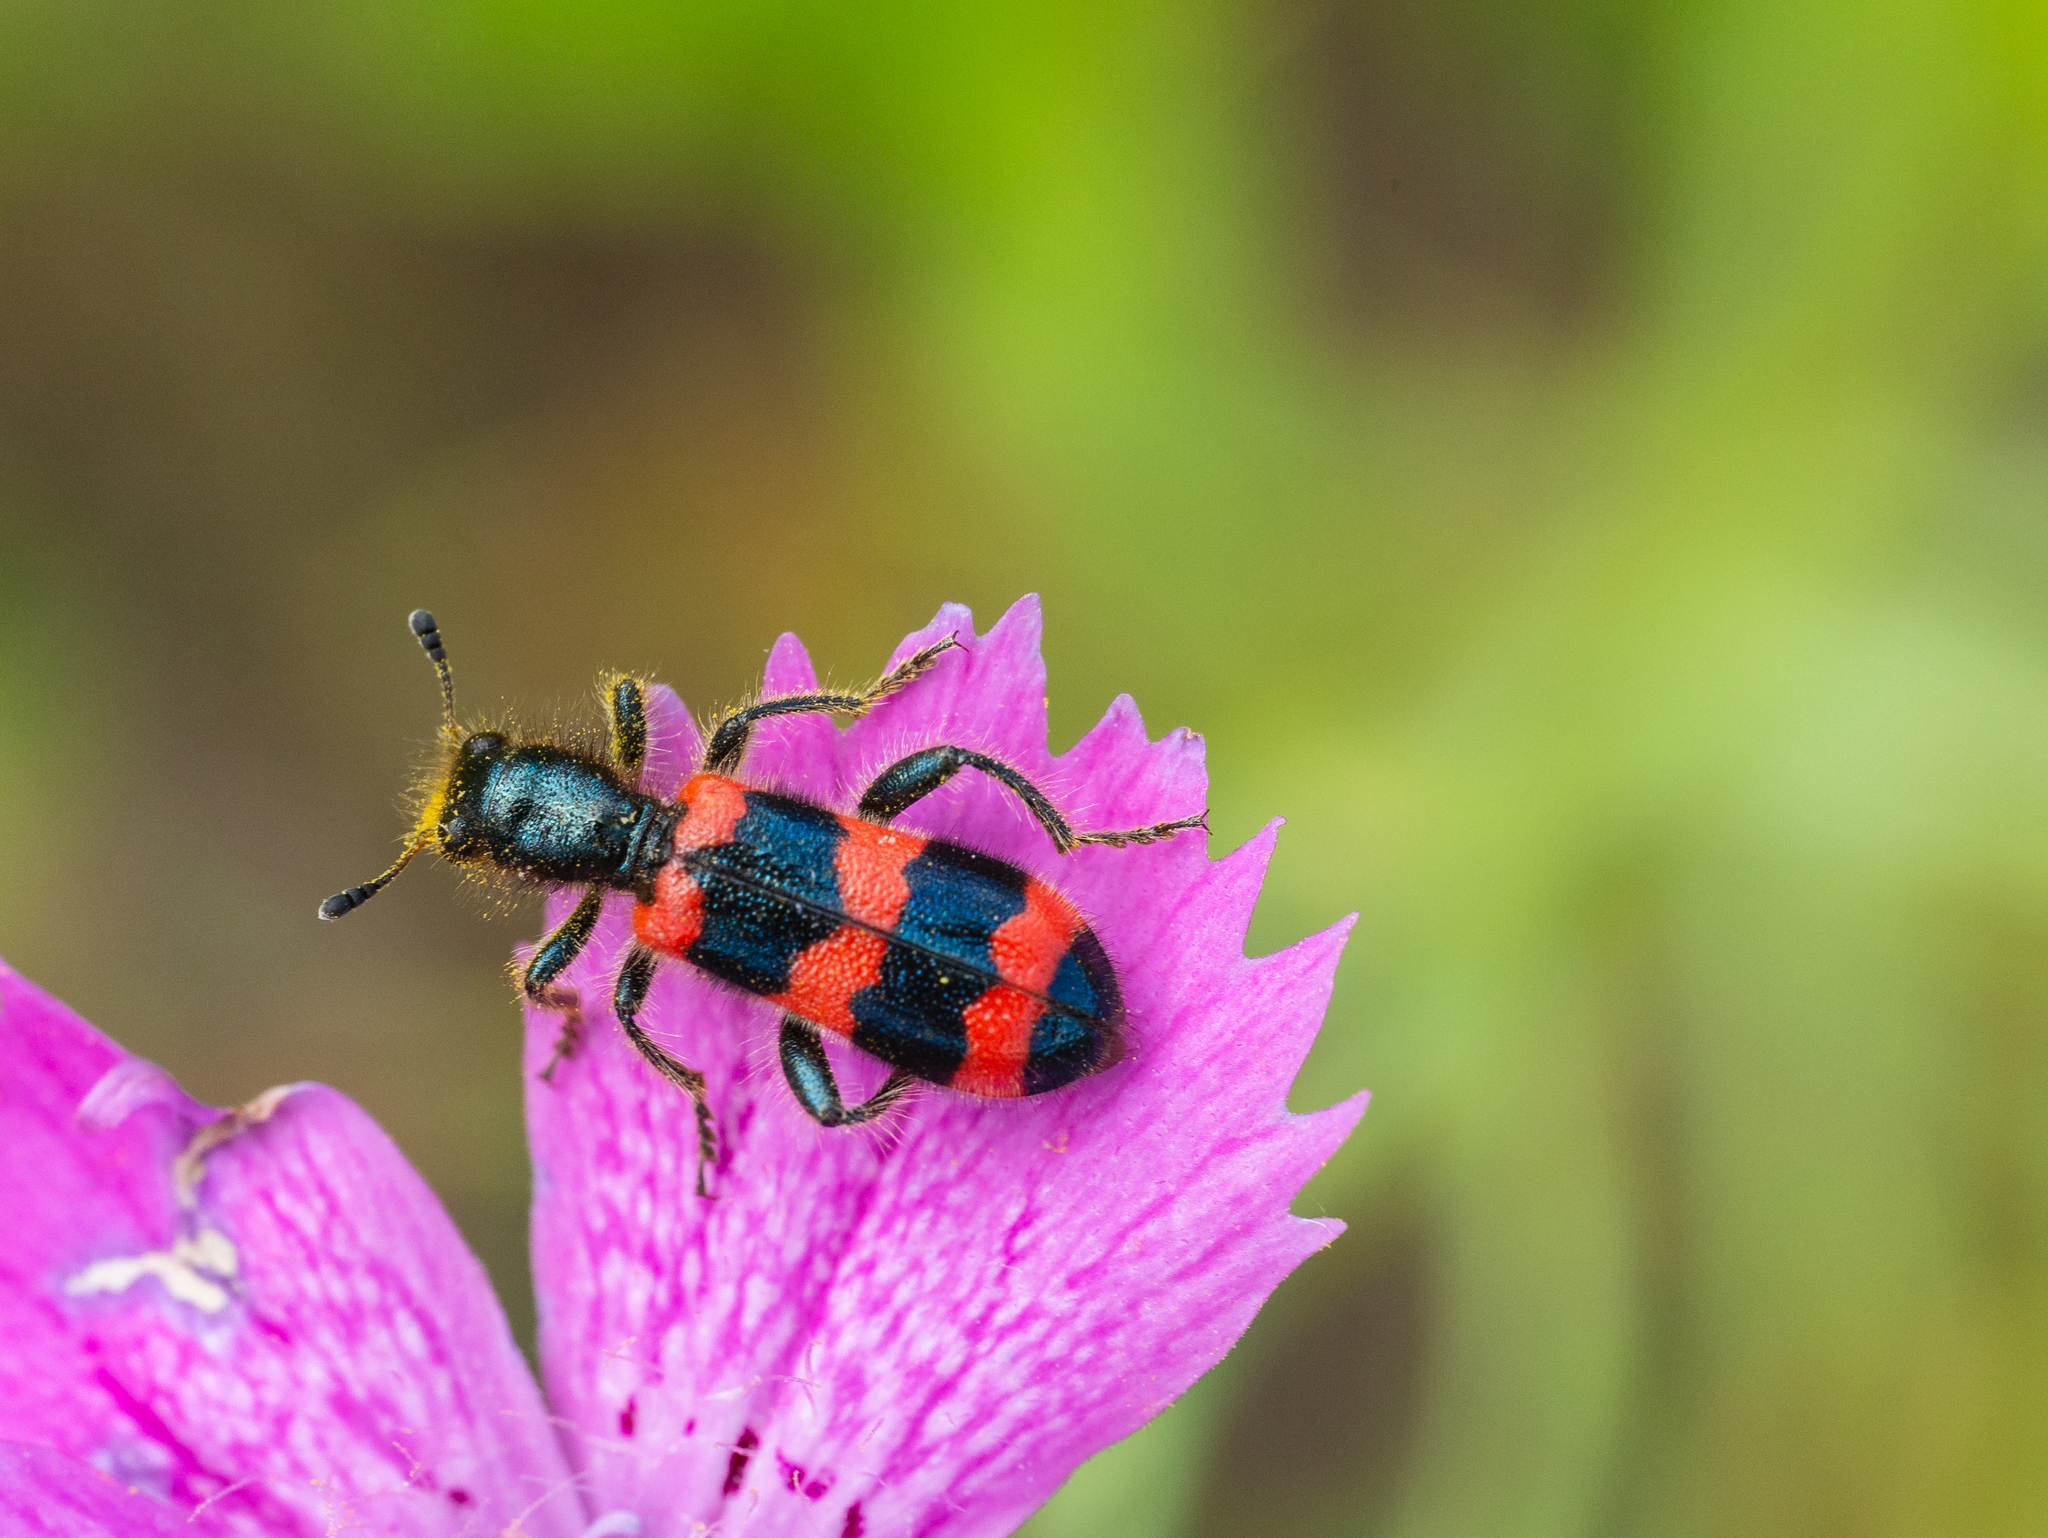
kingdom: Animalia
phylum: Arthropoda
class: Insecta
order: Coleoptera
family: Cleridae
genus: Trichodes
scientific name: Trichodes apiarius
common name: Bee-eating beetle
